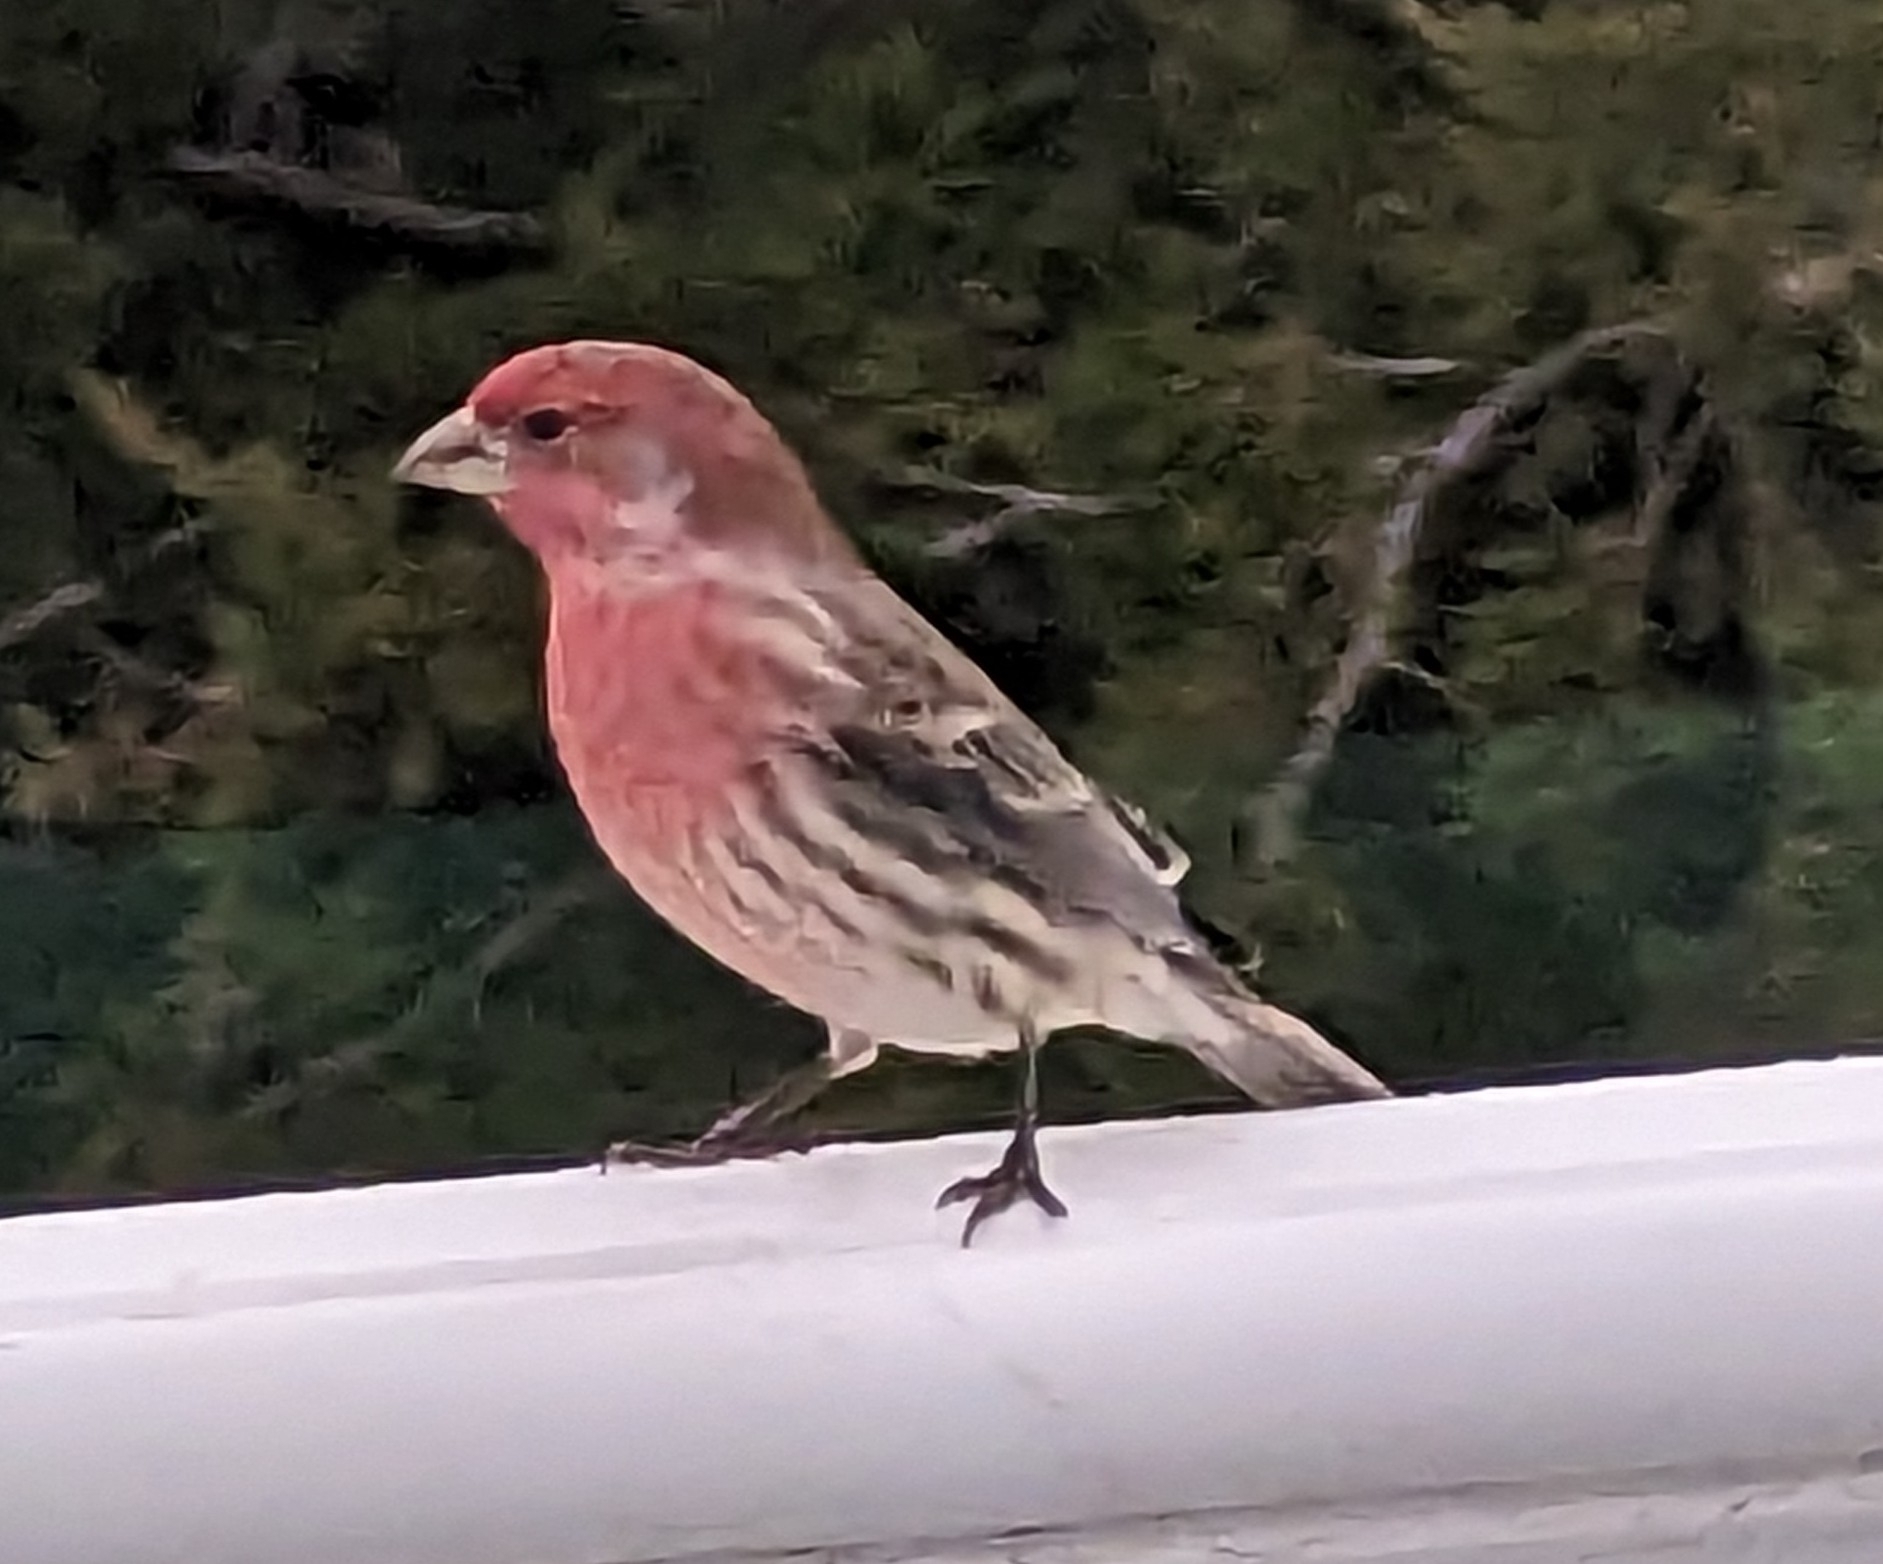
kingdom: Animalia
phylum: Chordata
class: Aves
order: Passeriformes
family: Fringillidae
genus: Haemorhous
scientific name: Haemorhous mexicanus
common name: House finch
